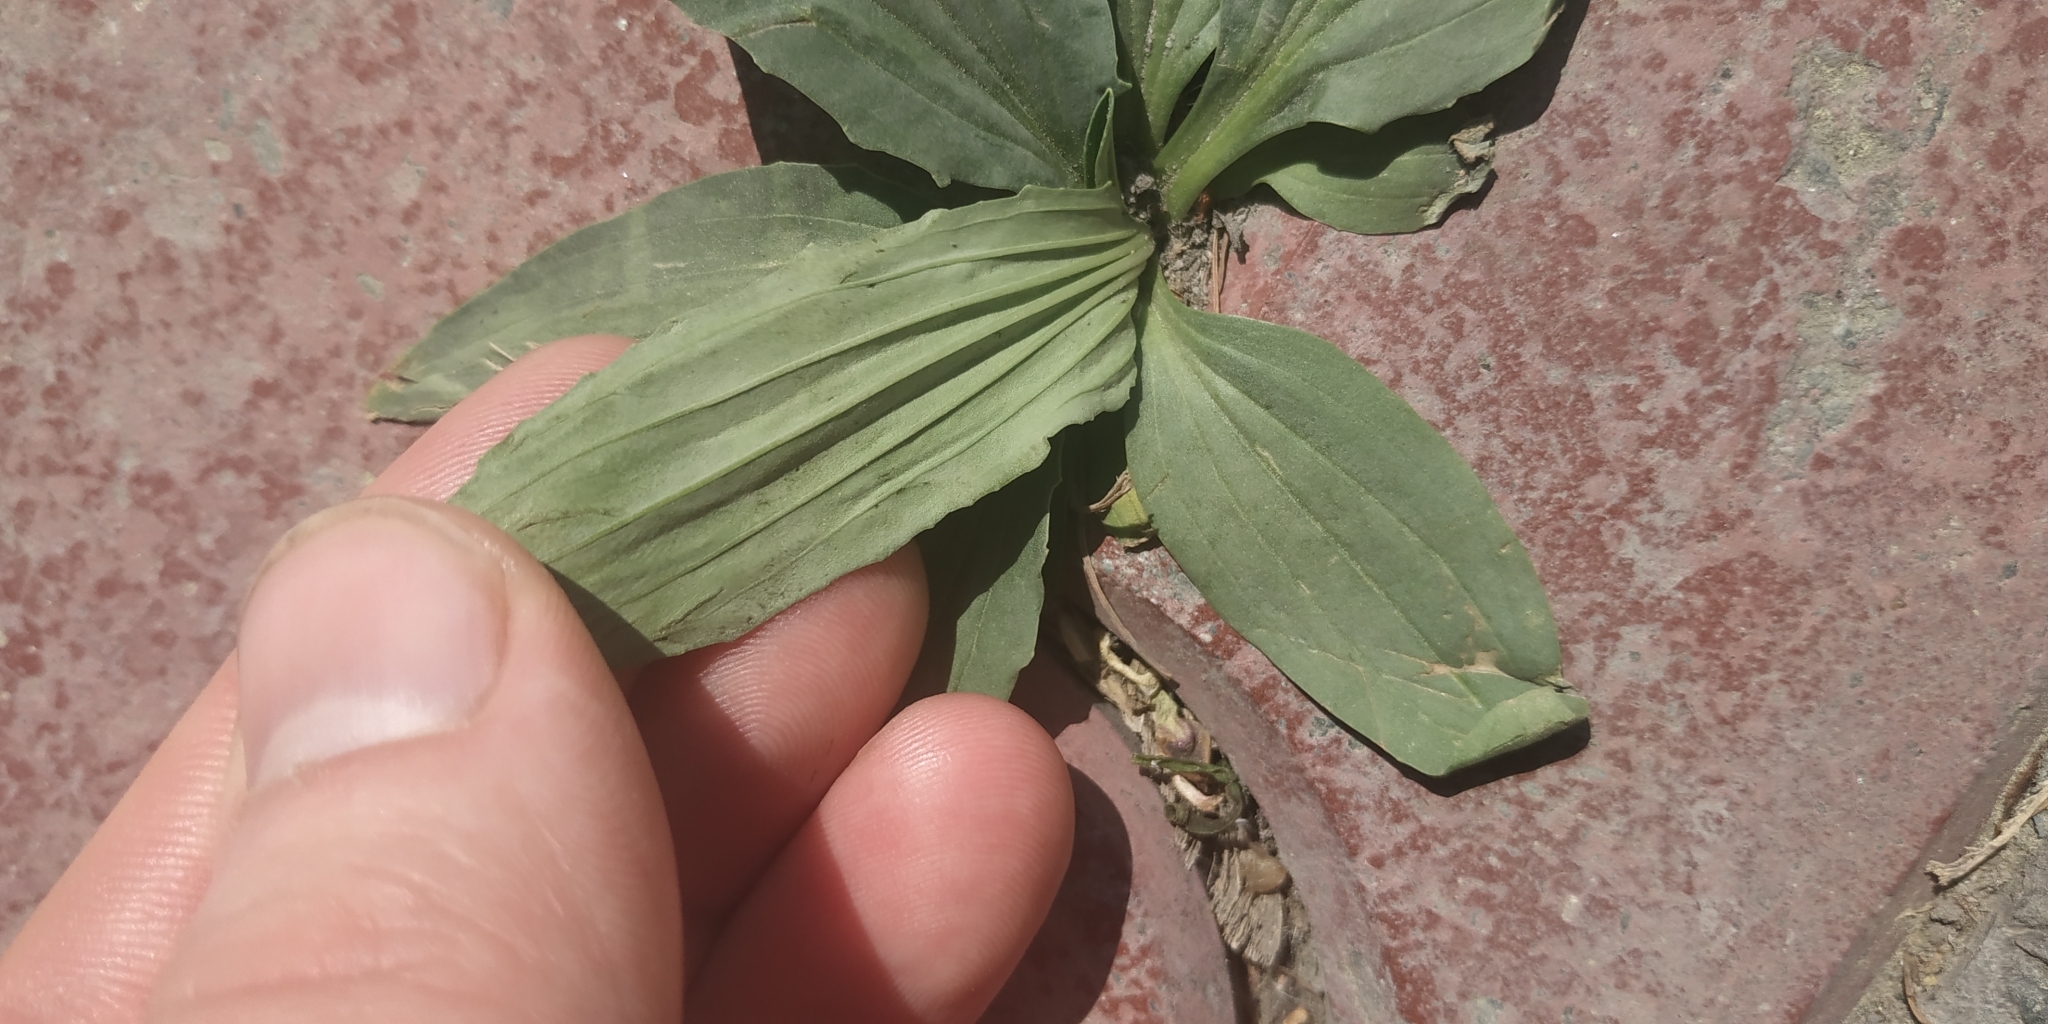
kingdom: Plantae
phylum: Tracheophyta
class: Magnoliopsida
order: Lamiales
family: Plantaginaceae
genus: Plantago
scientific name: Plantago depressa
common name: Depressed plantain
